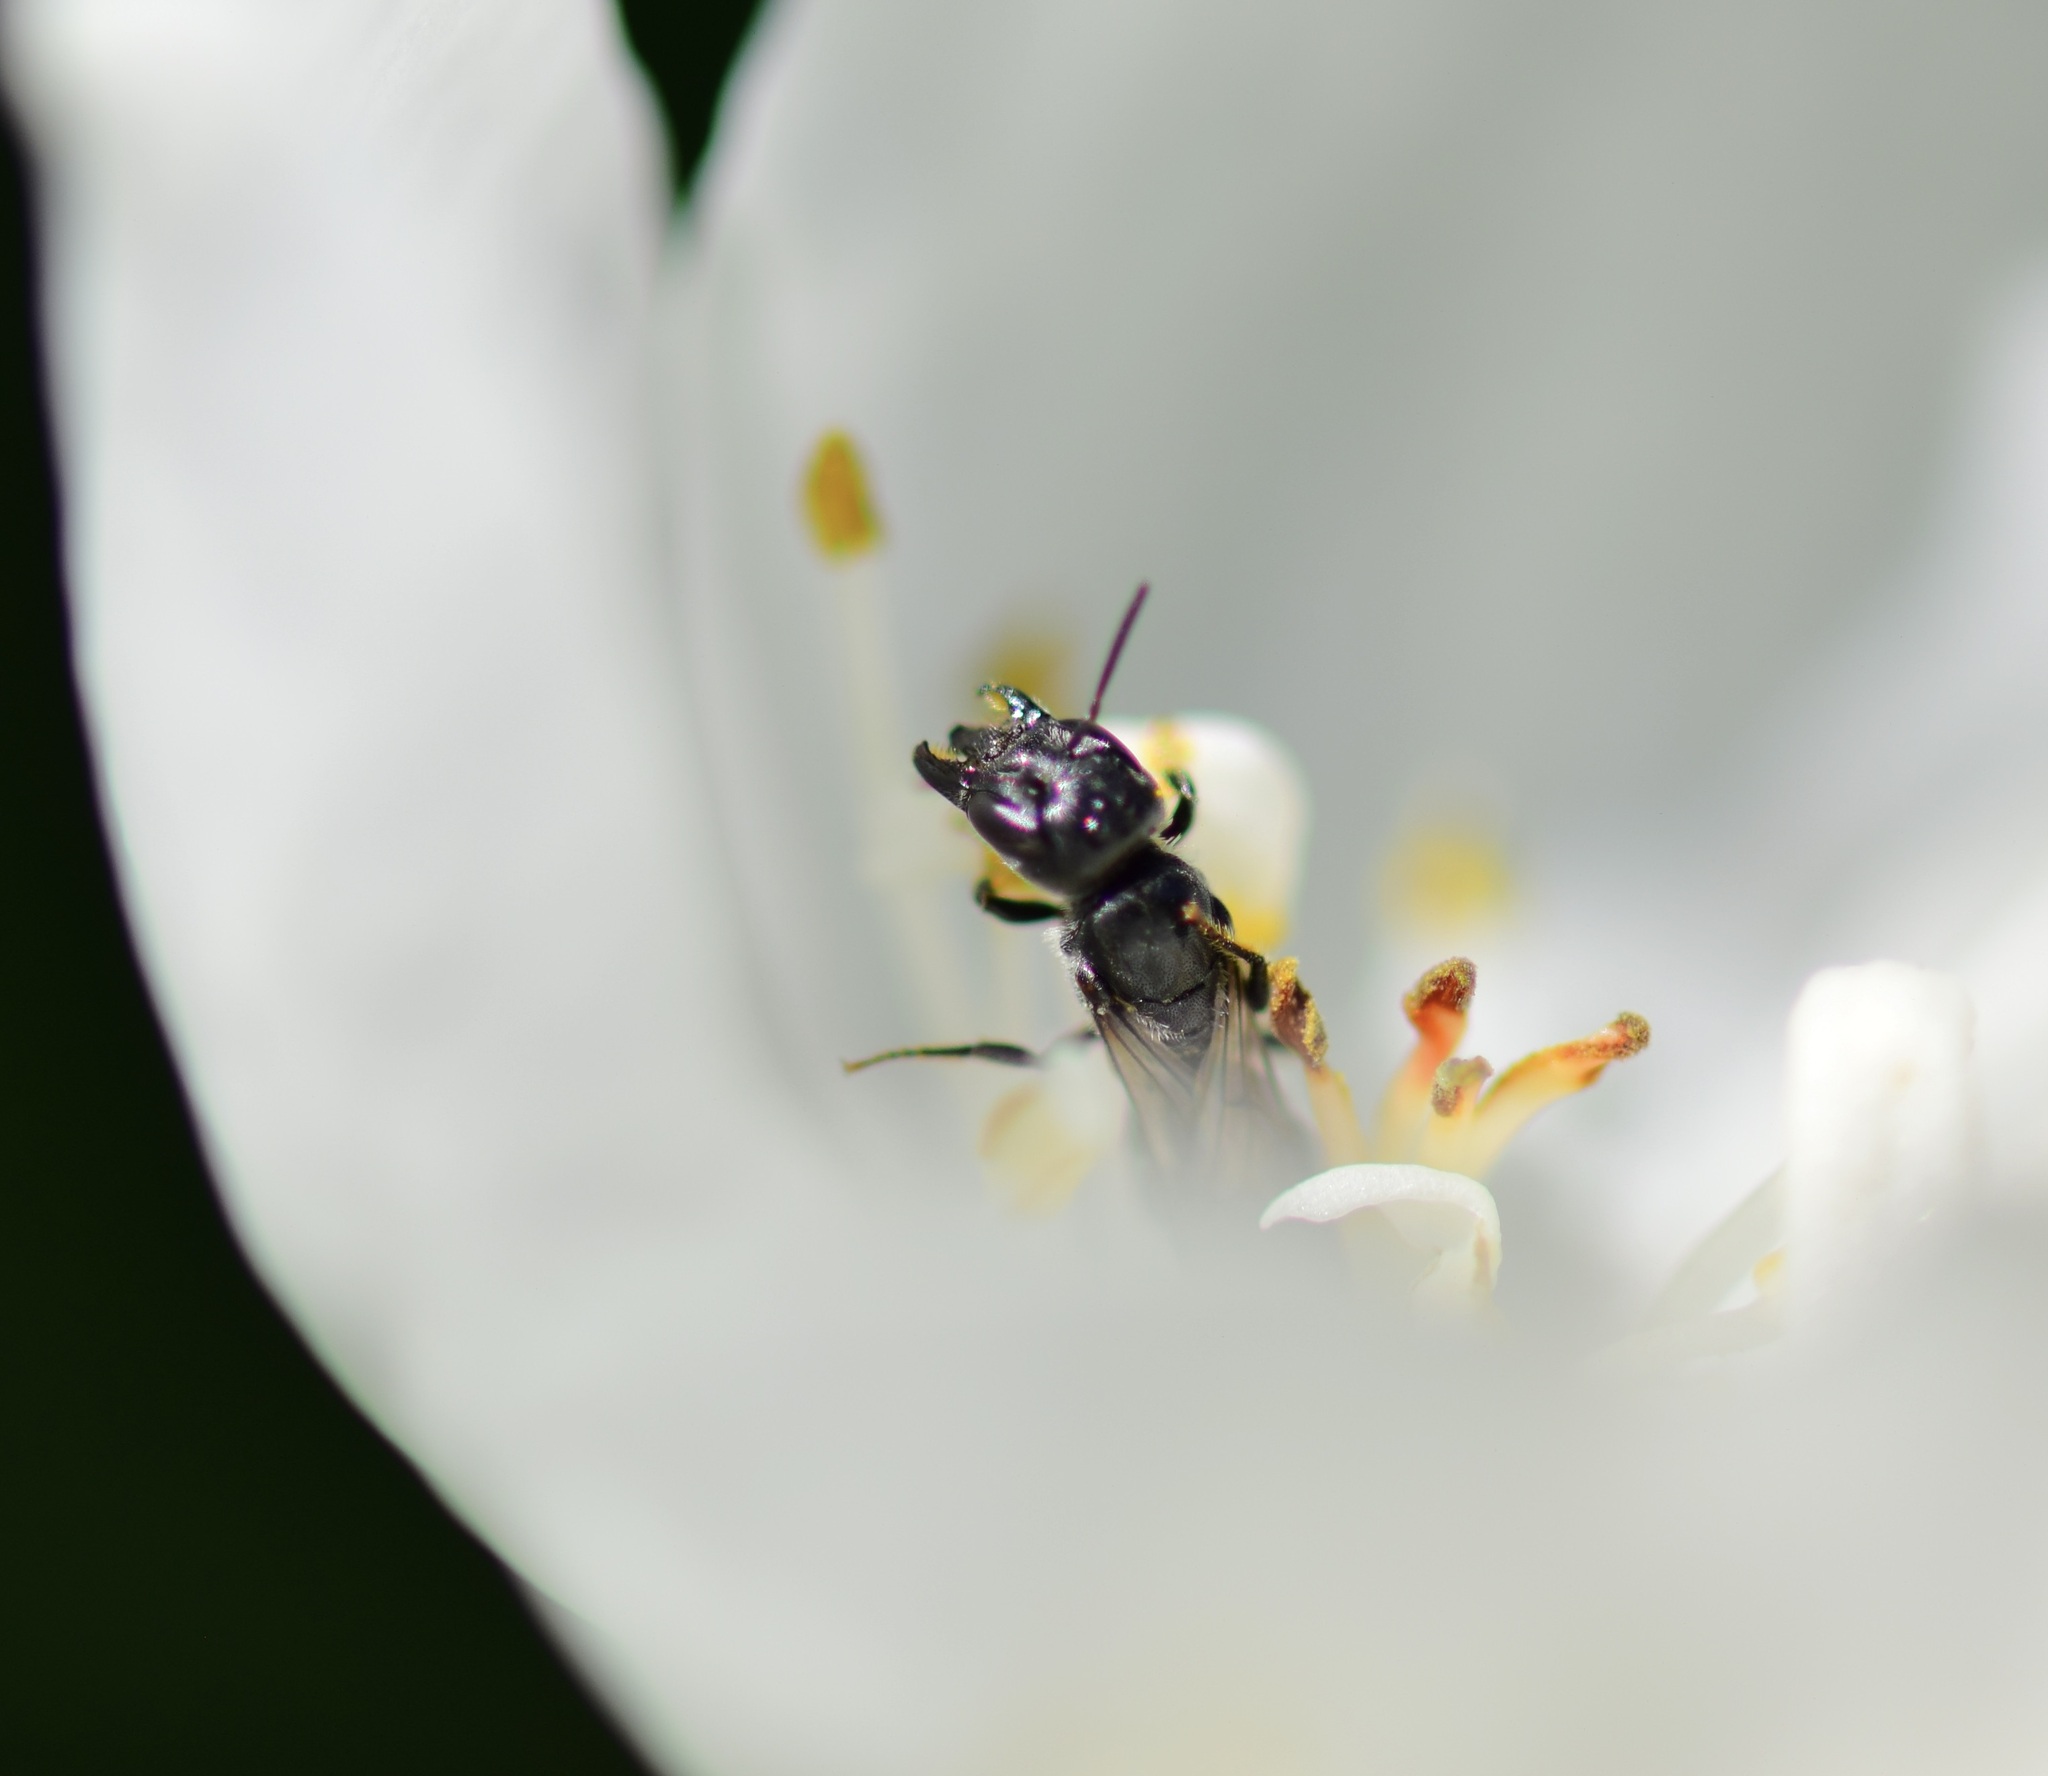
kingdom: Animalia
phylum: Arthropoda
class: Insecta
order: Hymenoptera
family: Megachilidae
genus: Chelostoma
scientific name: Chelostoma philadelphi
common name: Mock-orange scissor bee
